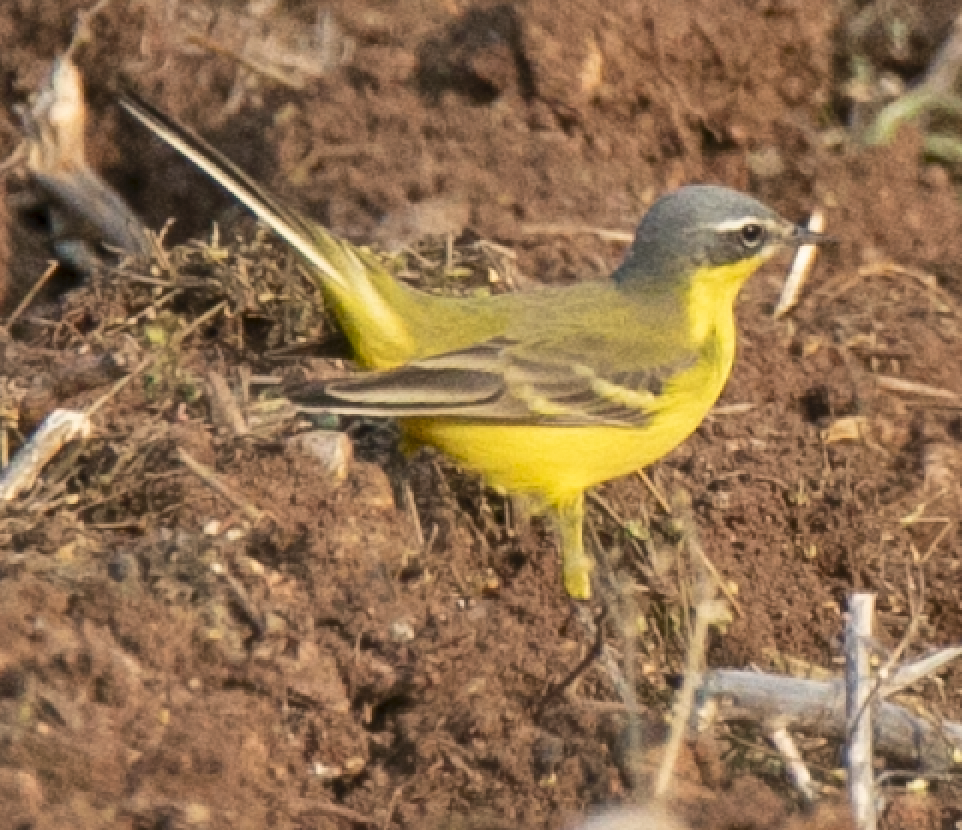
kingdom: Animalia
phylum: Chordata
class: Aves
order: Passeriformes
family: Motacillidae
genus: Motacilla
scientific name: Motacilla flava
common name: Western yellow wagtail
